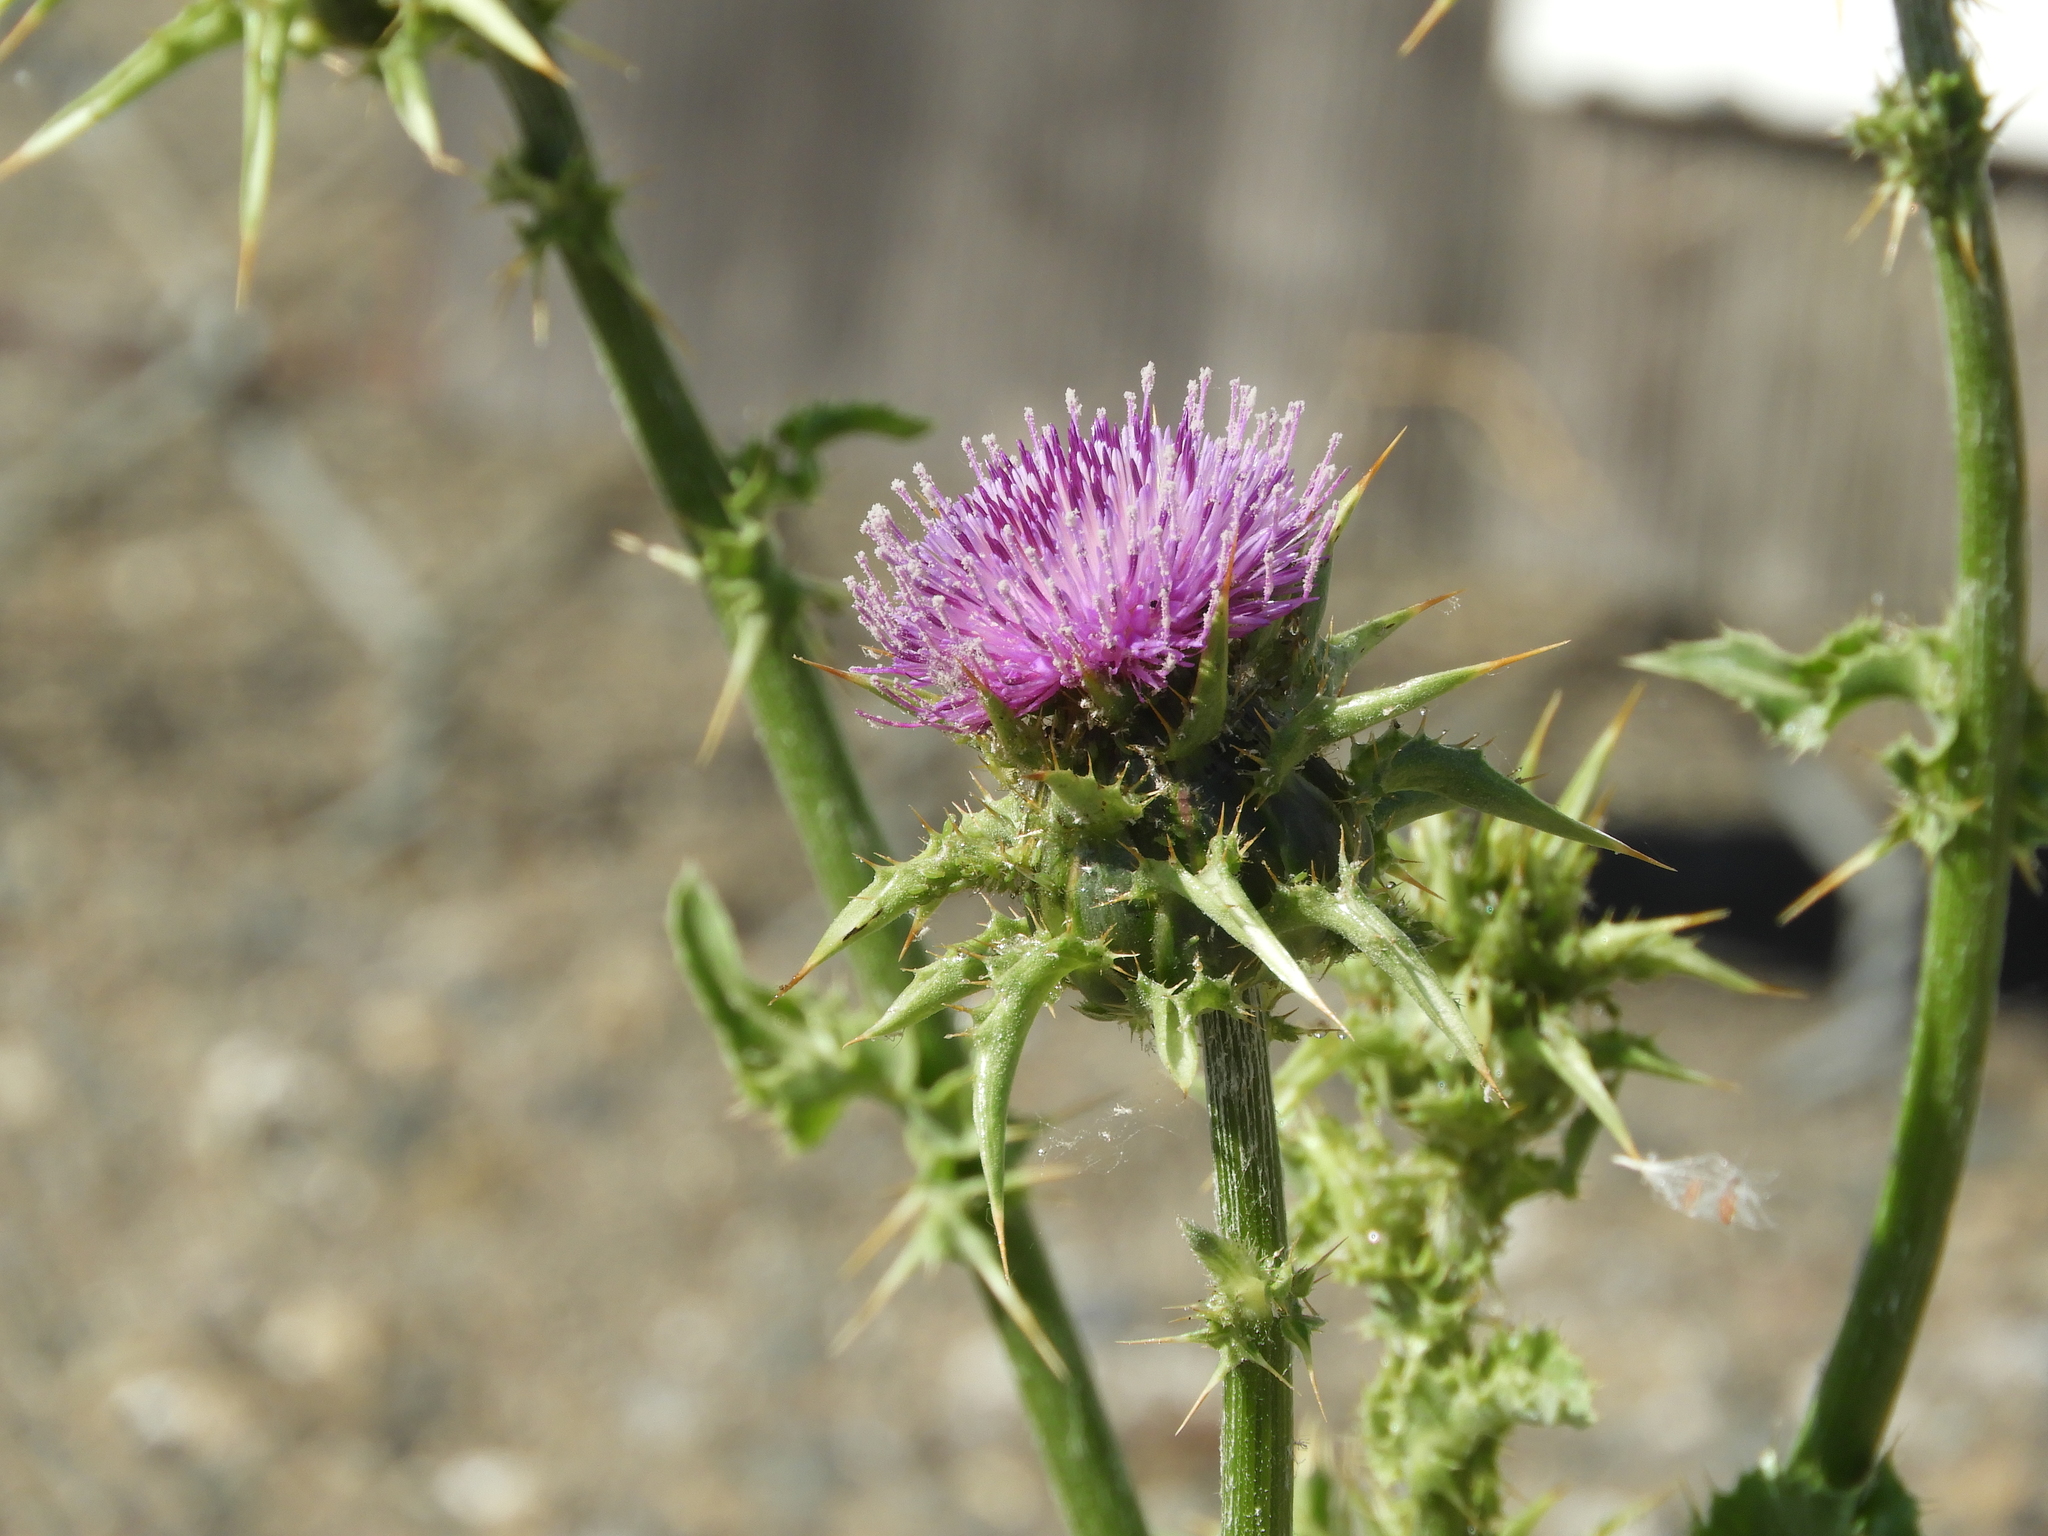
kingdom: Plantae
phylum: Tracheophyta
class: Magnoliopsida
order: Asterales
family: Asteraceae
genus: Silybum
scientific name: Silybum marianum
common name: Milk thistle
